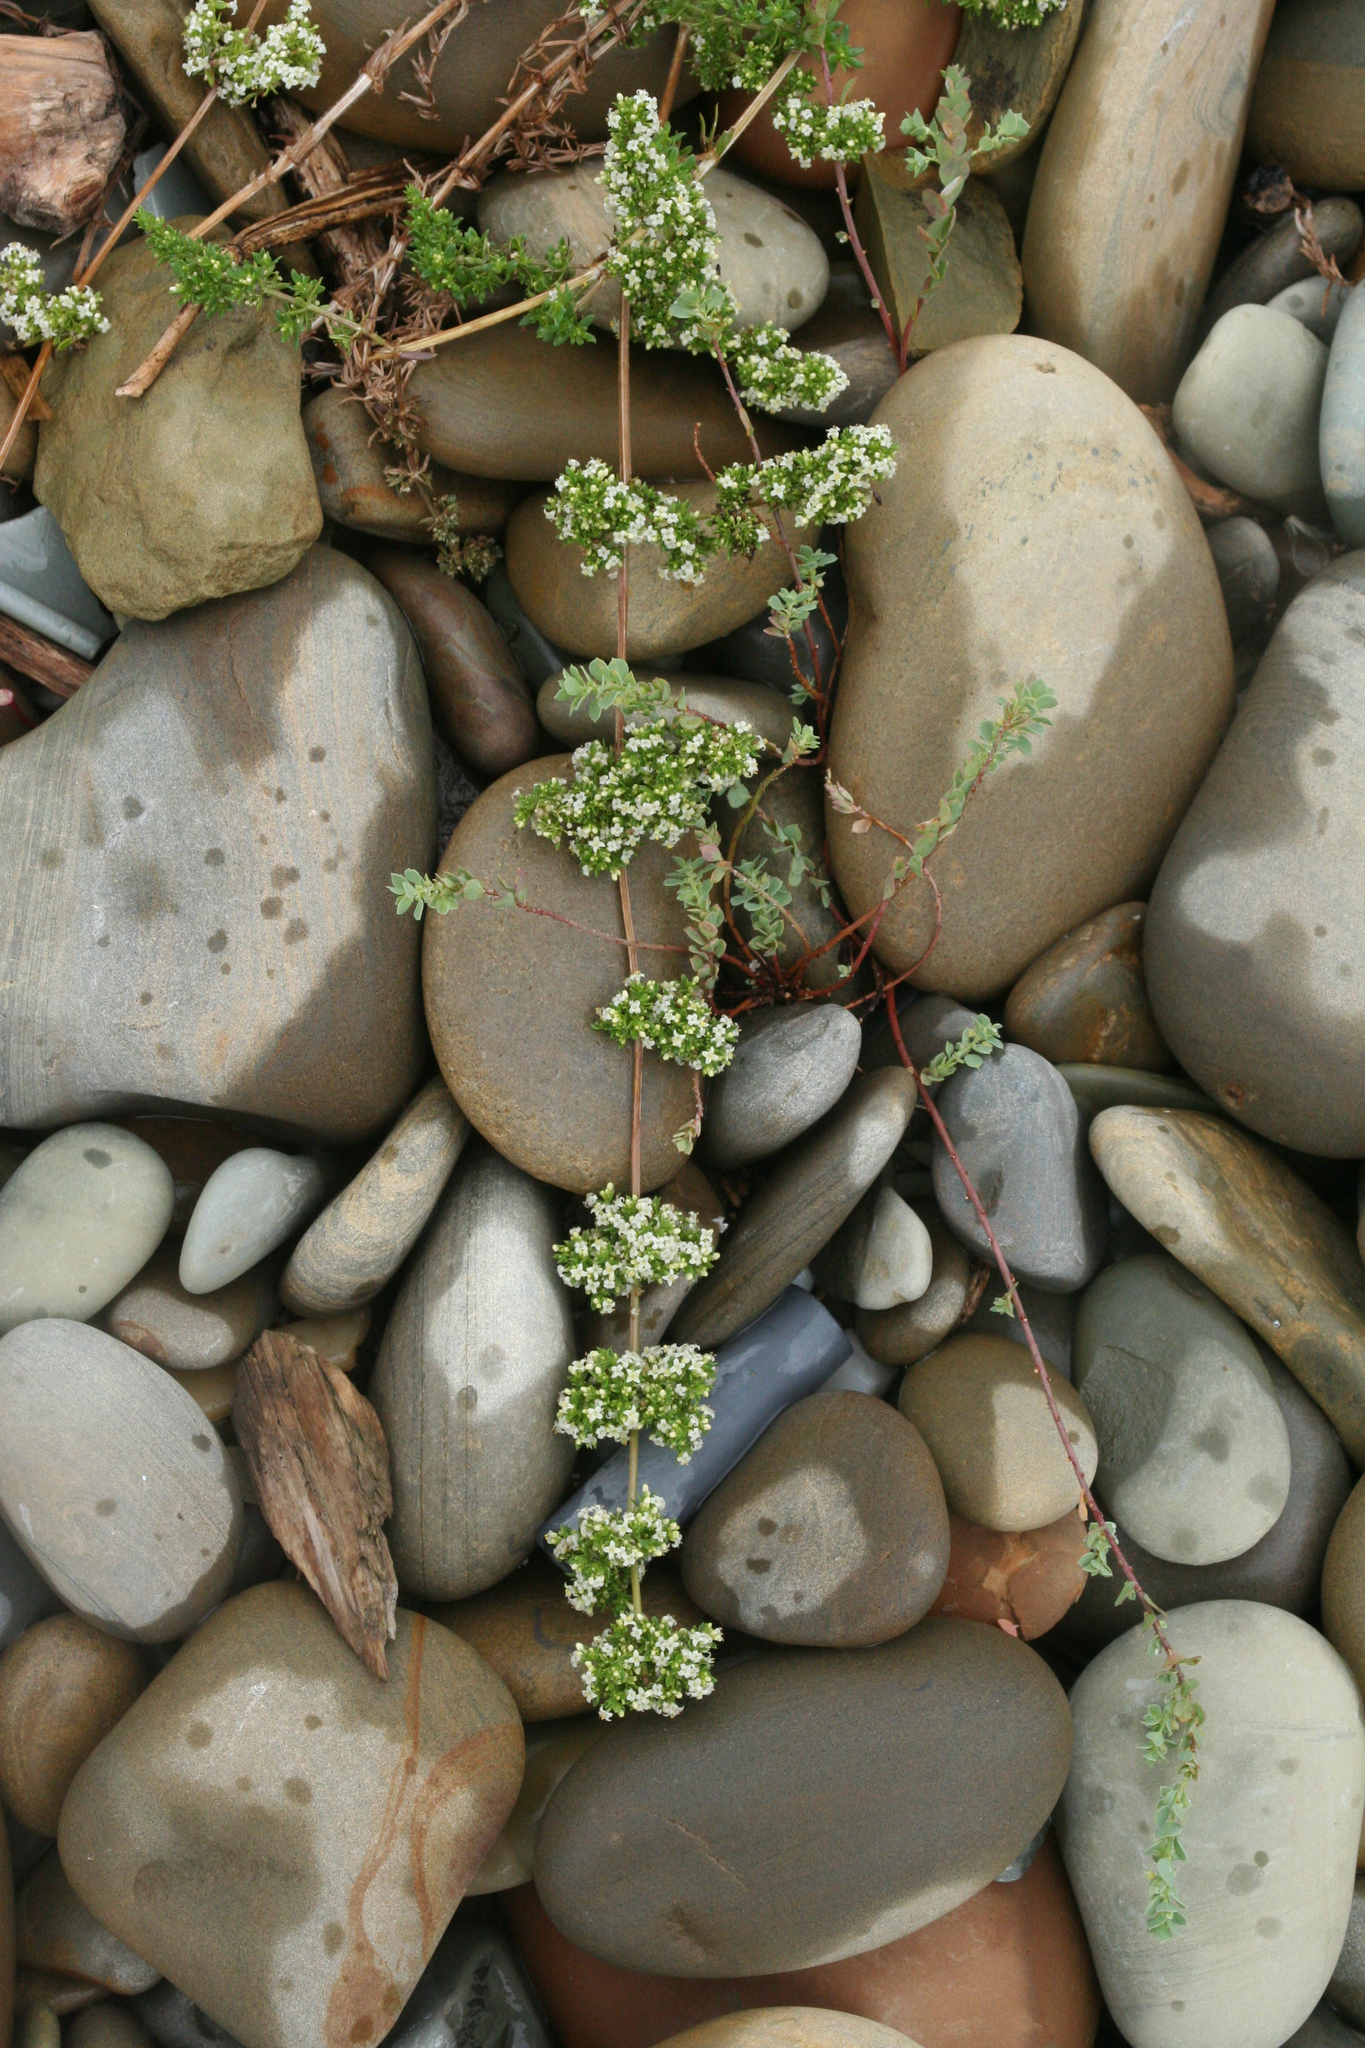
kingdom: Plantae
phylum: Tracheophyta
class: Magnoliopsida
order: Gentianales
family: Rubiaceae
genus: Galium
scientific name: Galium humifusum
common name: Spreading bedstraw
